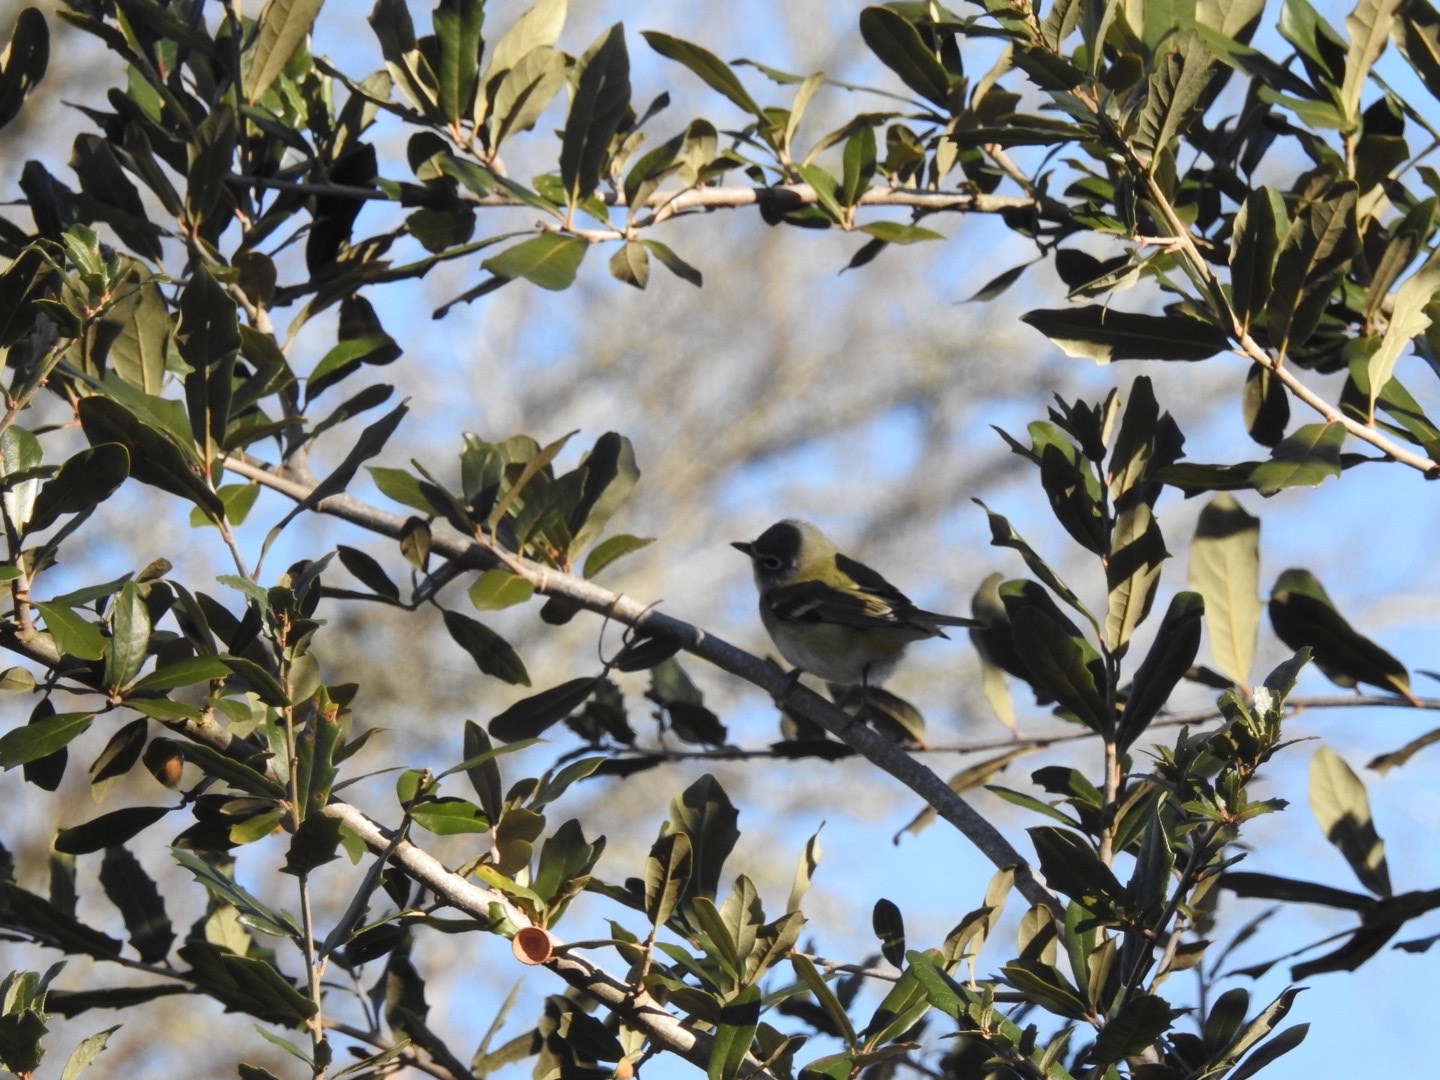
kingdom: Animalia
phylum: Chordata
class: Aves
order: Passeriformes
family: Vireonidae
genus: Vireo
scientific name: Vireo solitarius
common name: Blue-headed vireo
